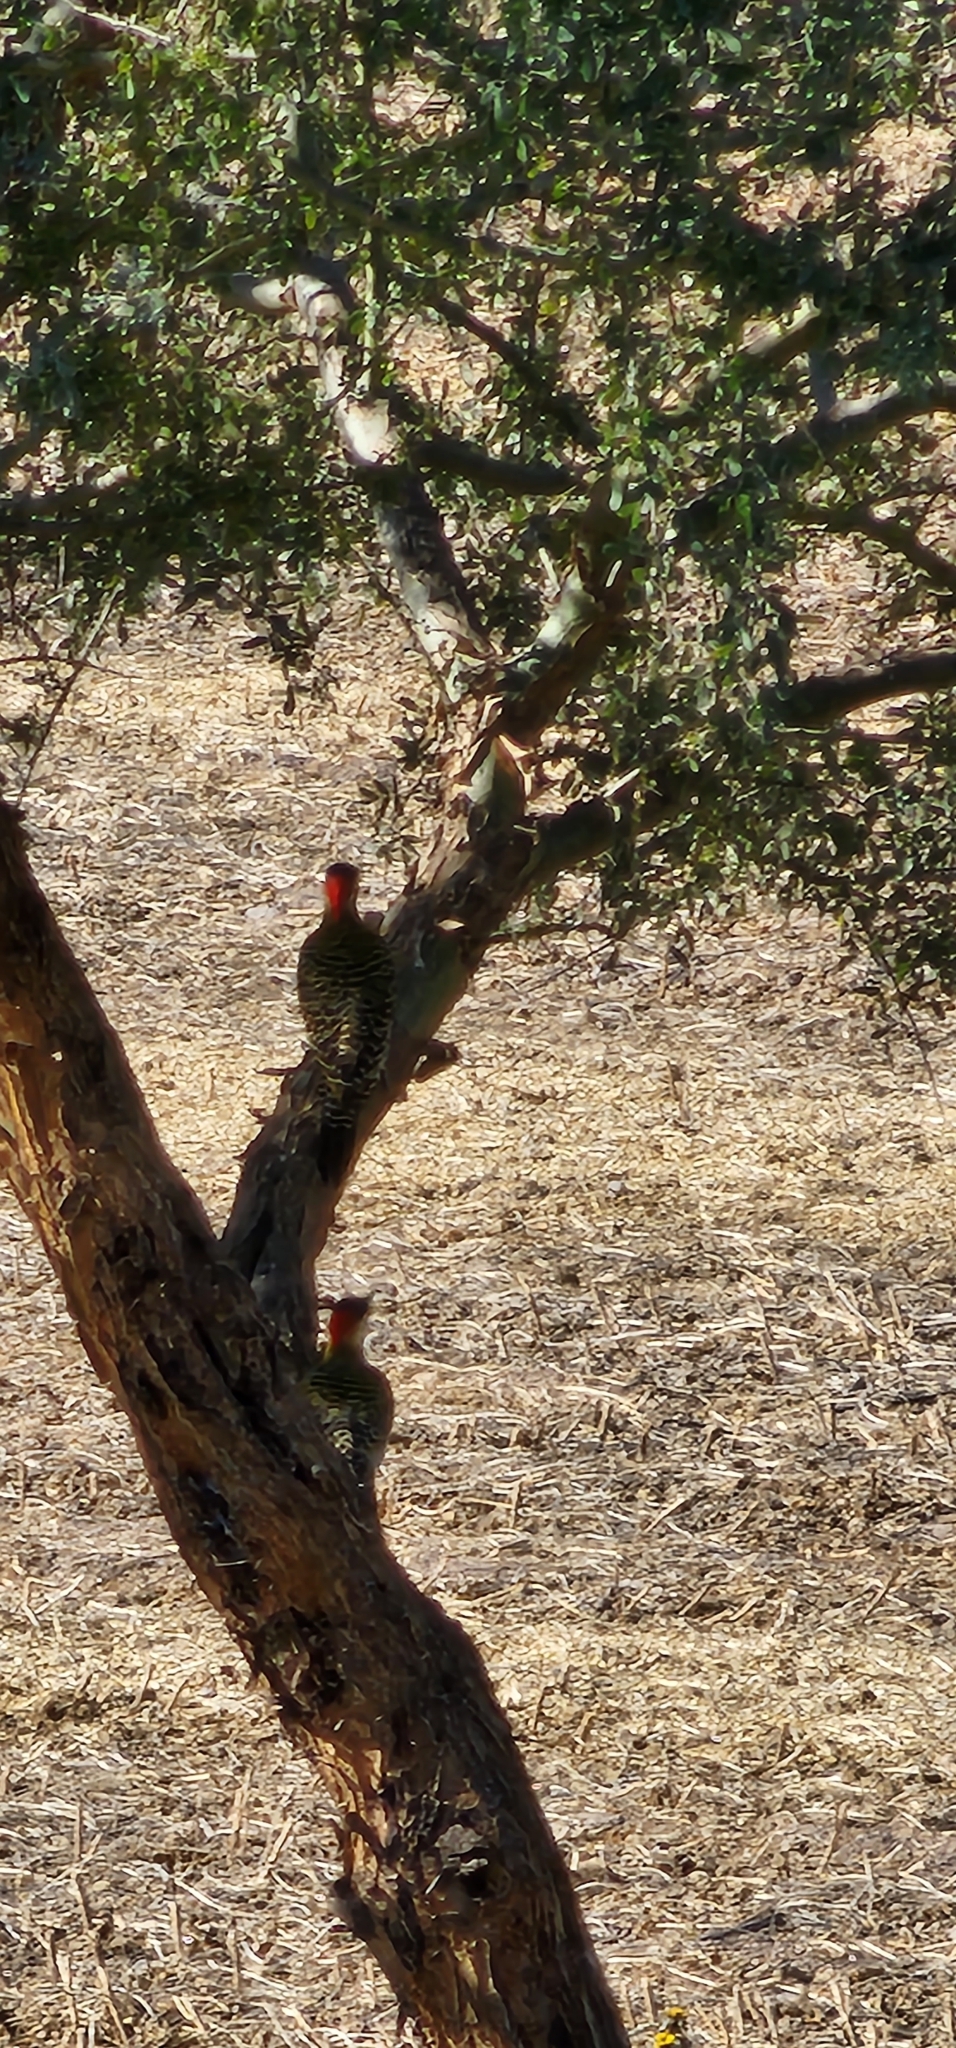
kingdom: Animalia
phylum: Chordata
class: Aves
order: Piciformes
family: Picidae
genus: Colaptes
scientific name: Colaptes melanochloros
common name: Green-barred woodpecker
